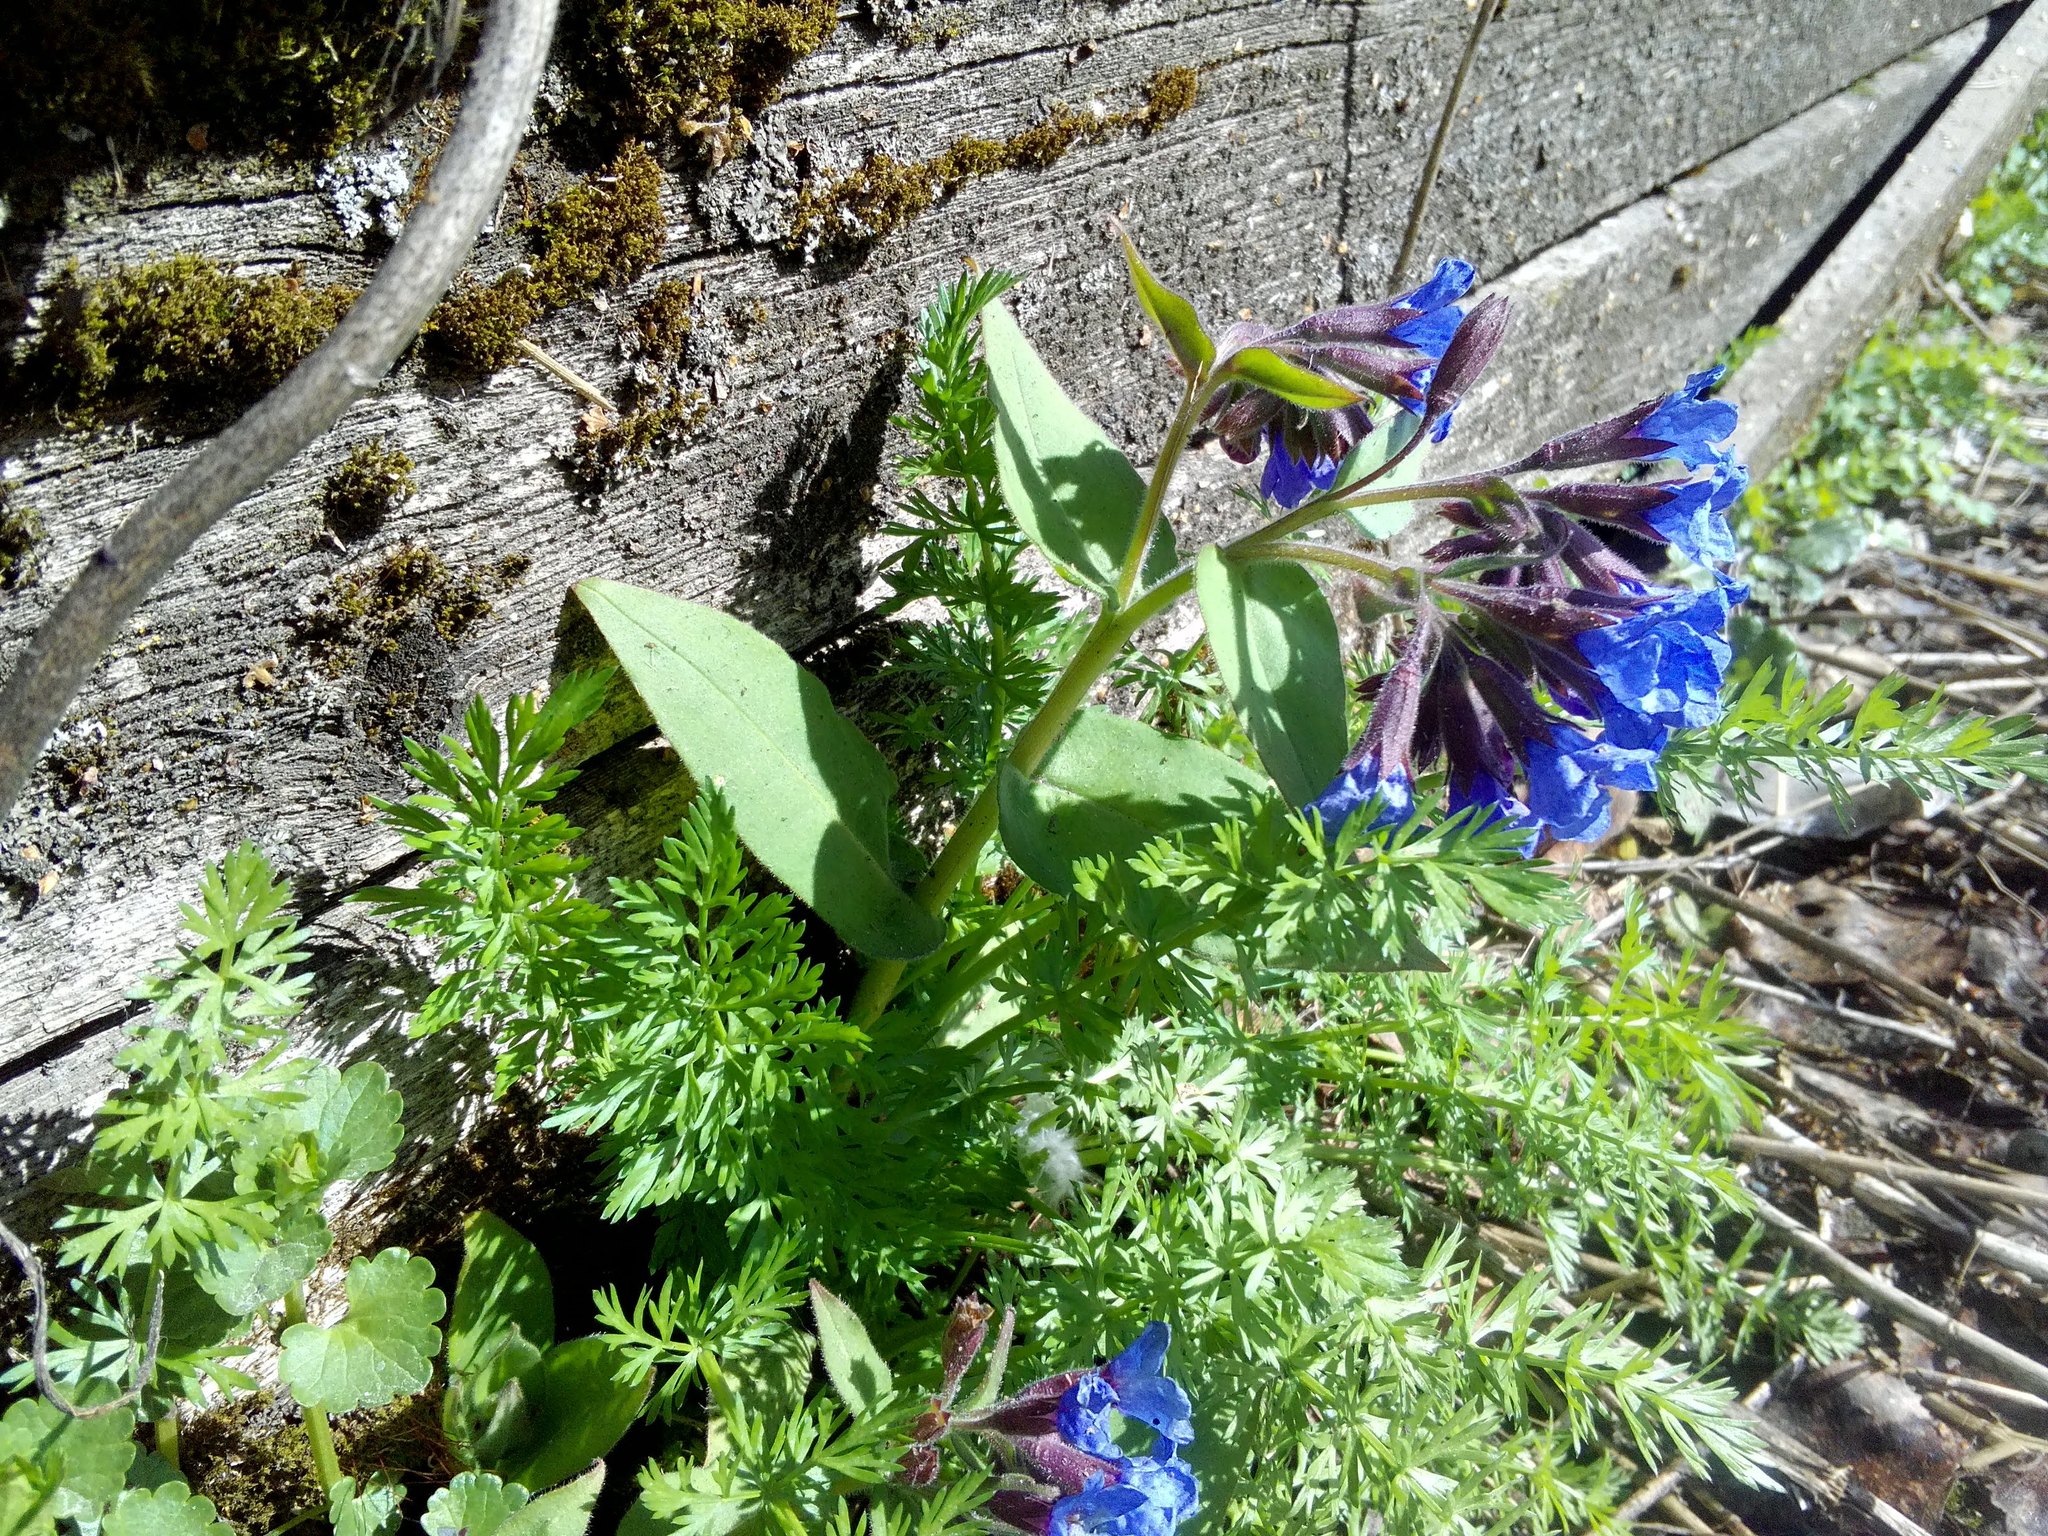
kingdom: Plantae
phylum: Tracheophyta
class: Magnoliopsida
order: Boraginales
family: Boraginaceae
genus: Pulmonaria
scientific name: Pulmonaria mollis
